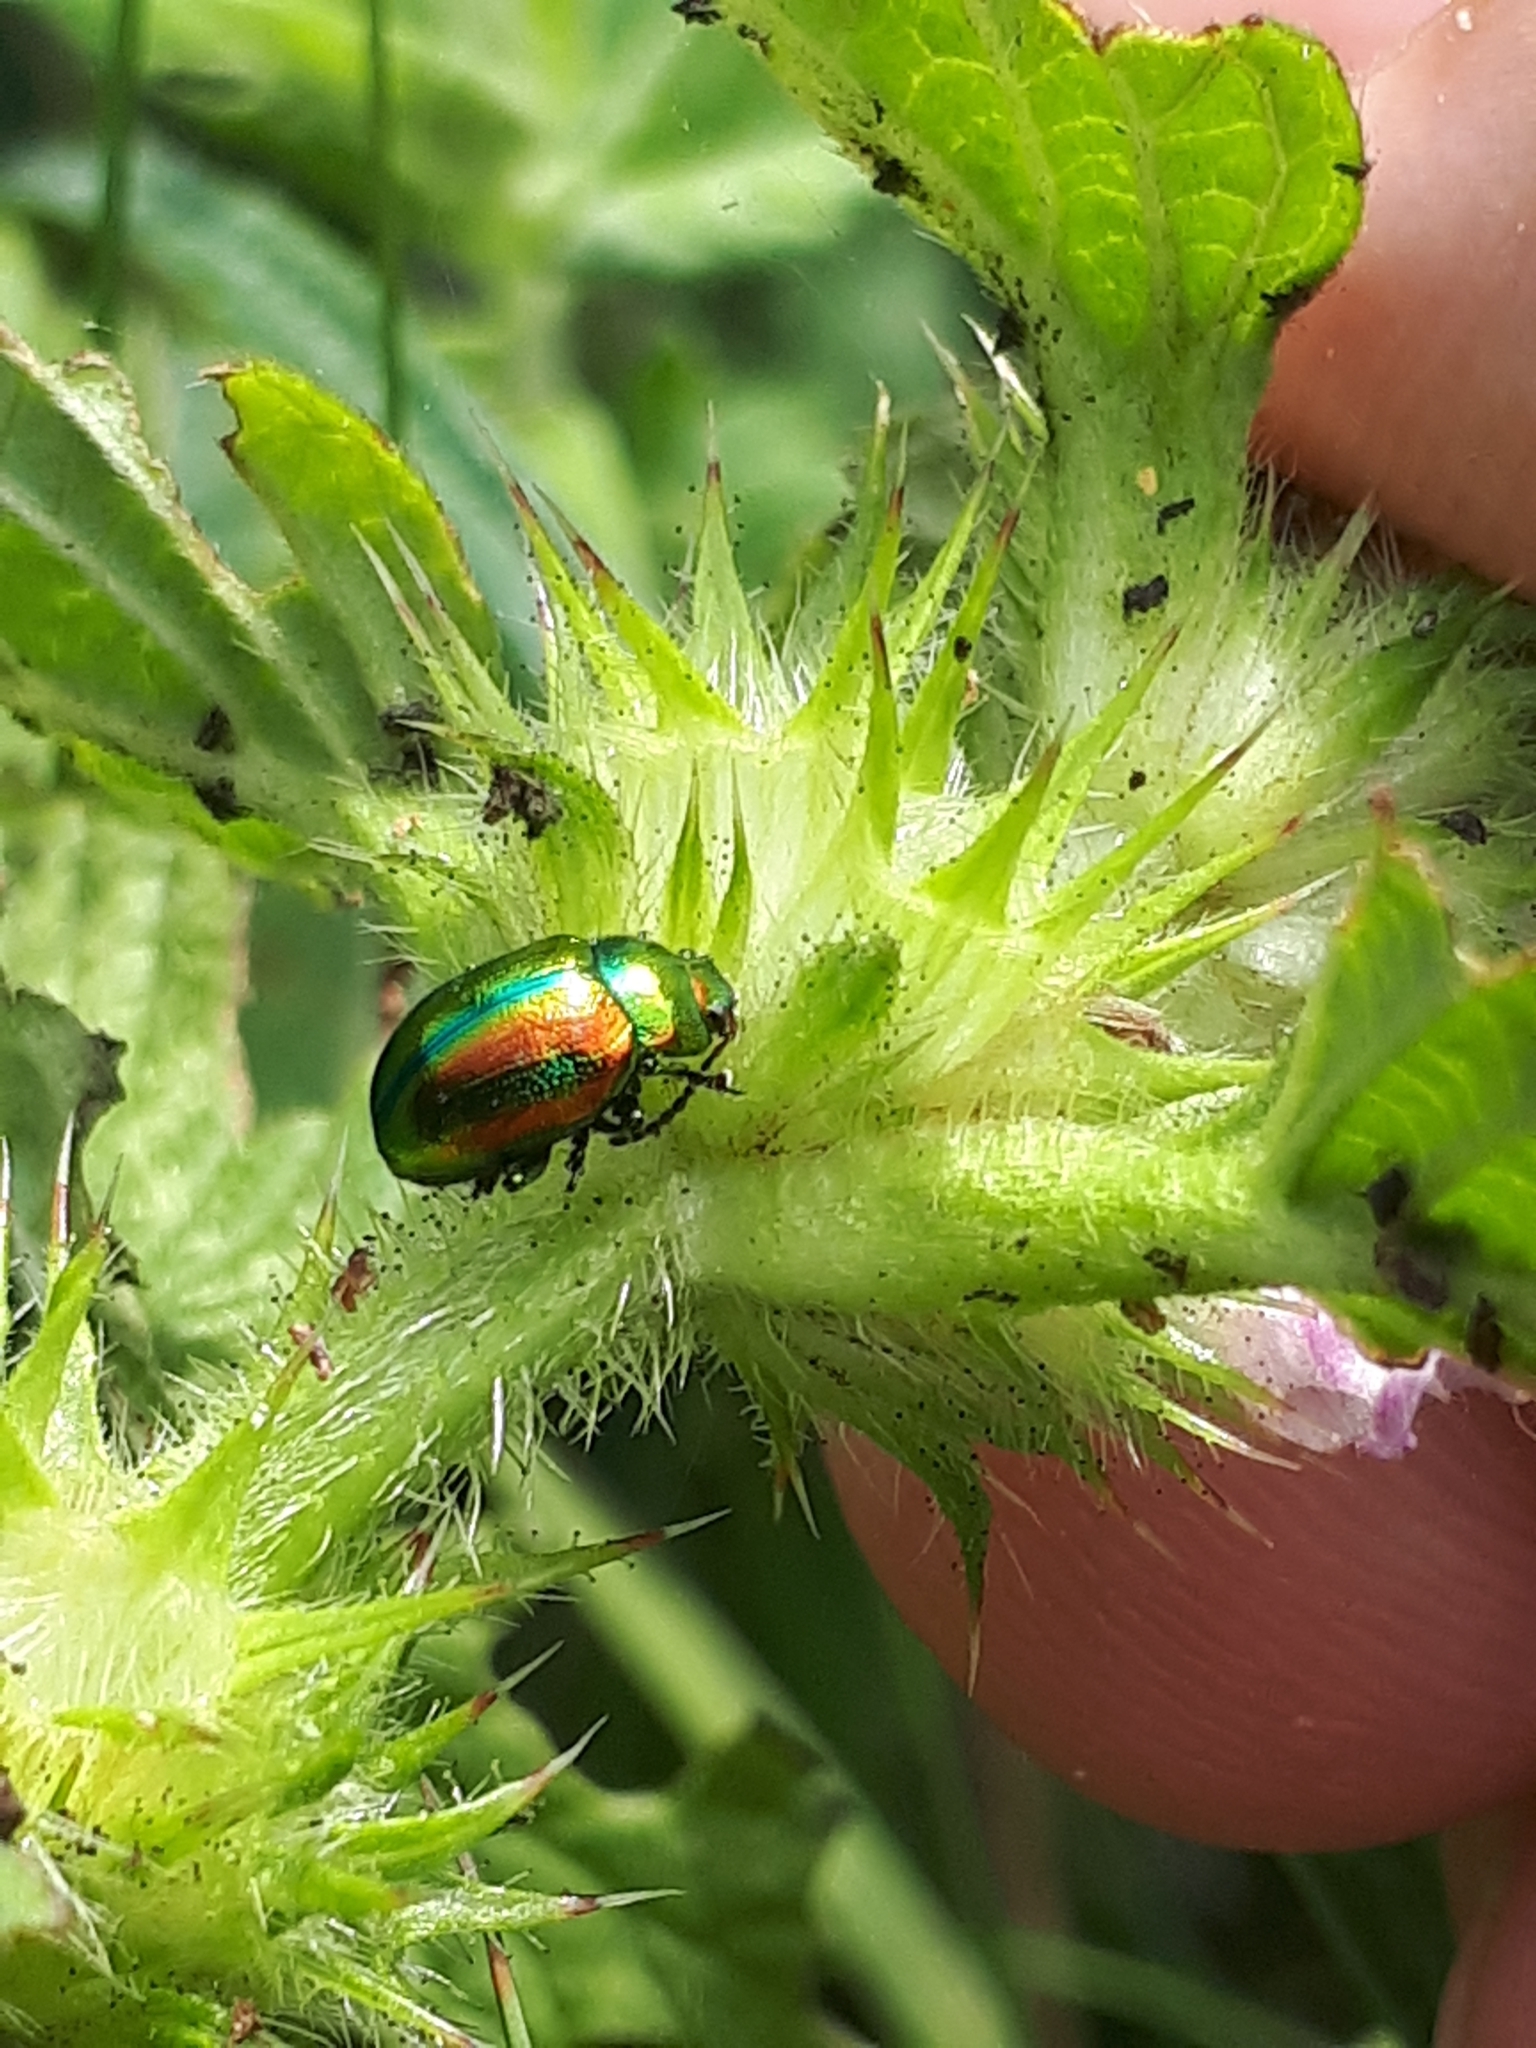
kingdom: Animalia
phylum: Arthropoda
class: Insecta
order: Coleoptera
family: Chrysomelidae
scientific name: Chrysomelidae
